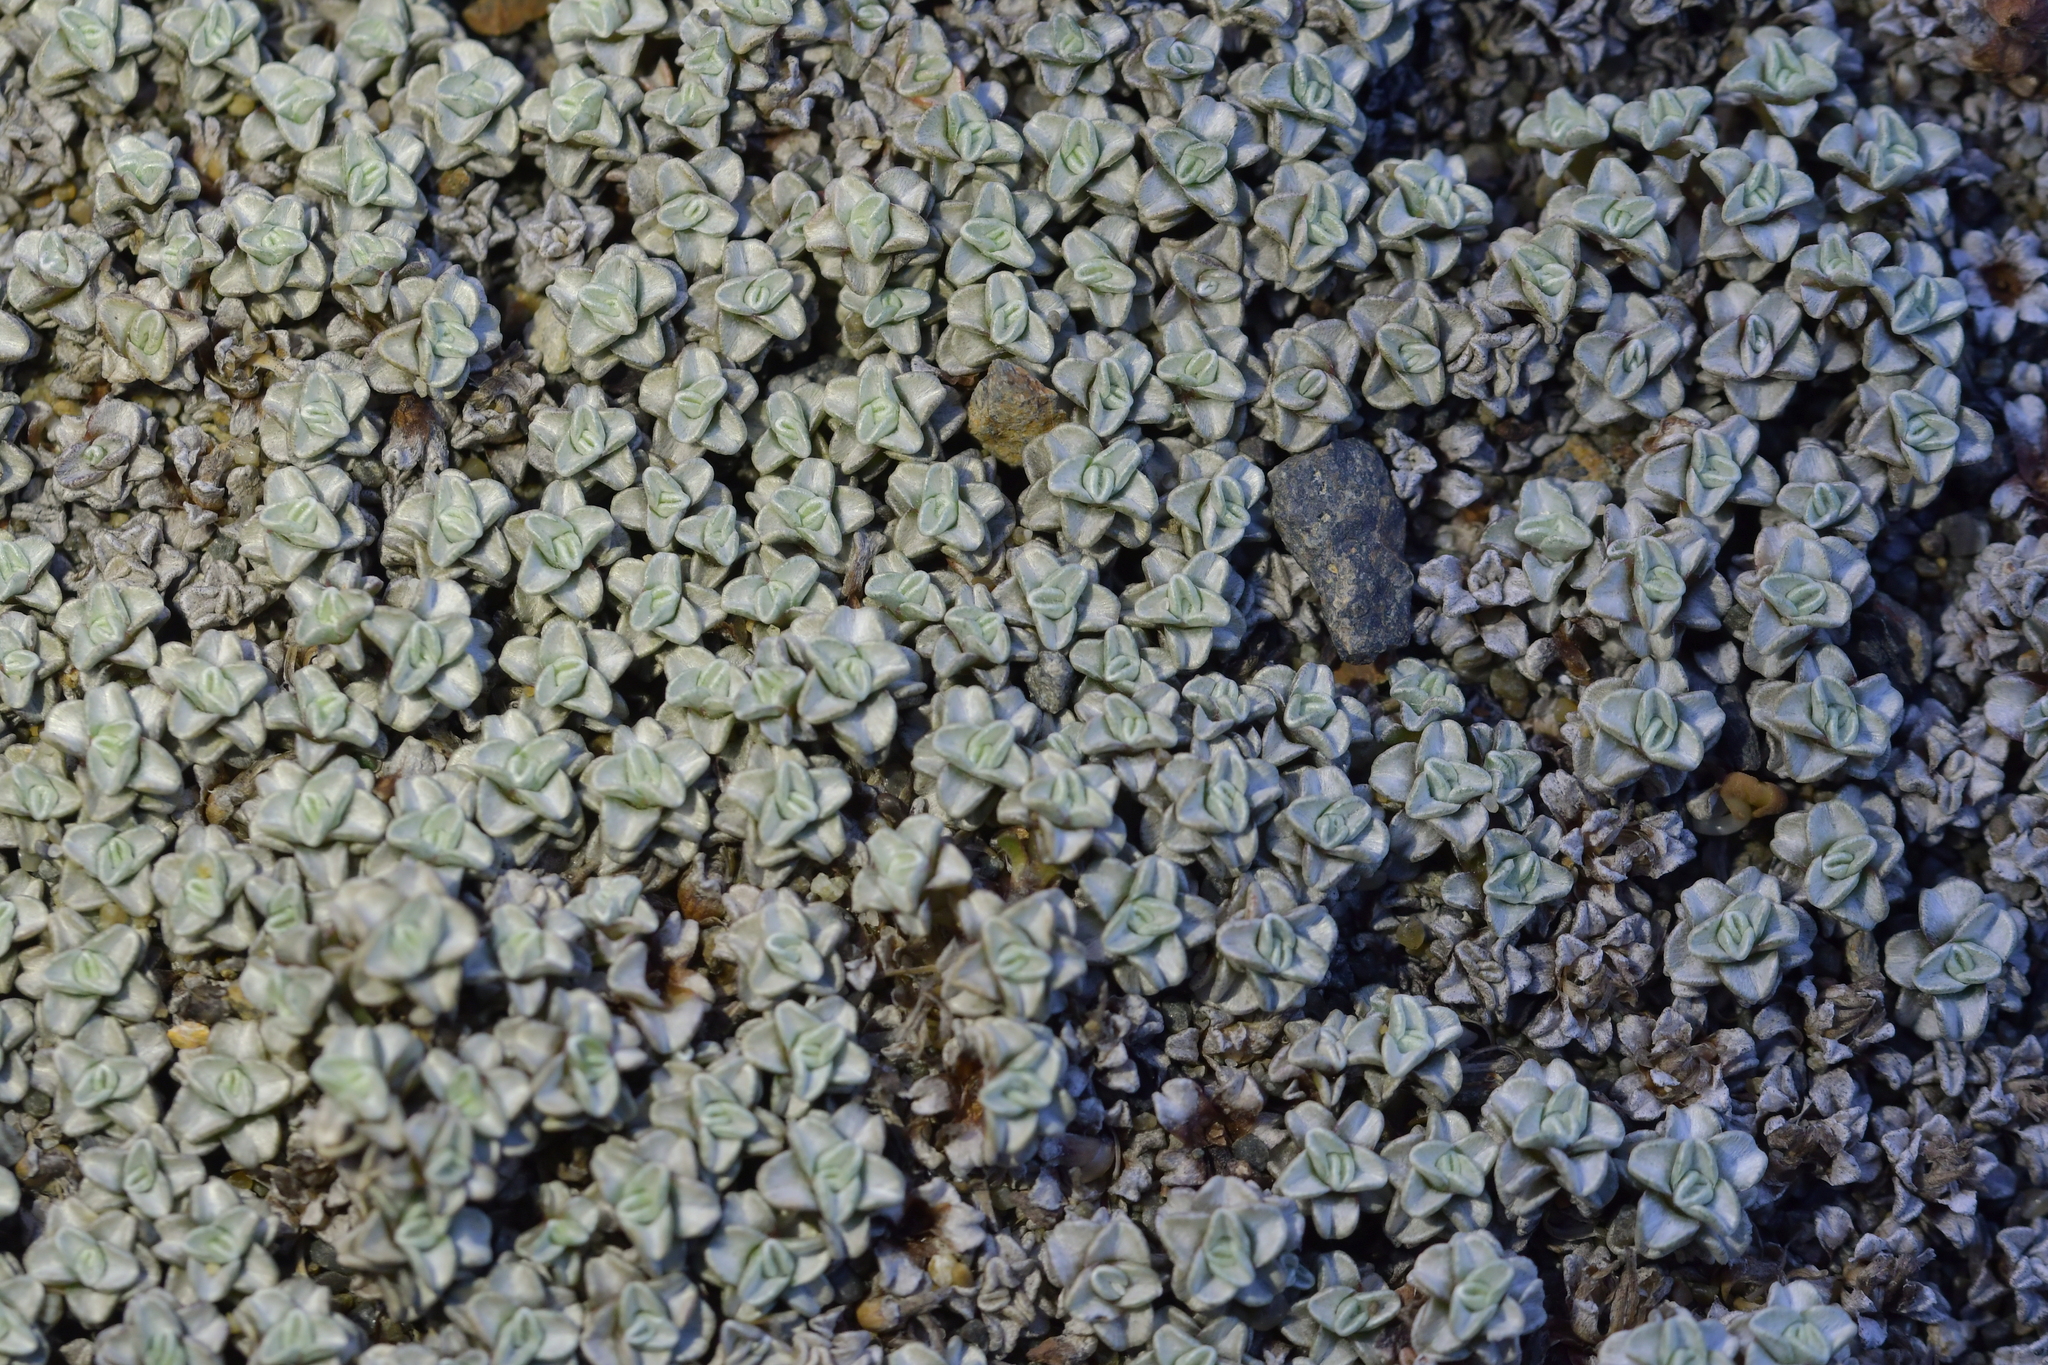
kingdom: Plantae
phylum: Tracheophyta
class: Magnoliopsida
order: Asterales
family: Asteraceae
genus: Raoulia
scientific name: Raoulia hookeri
